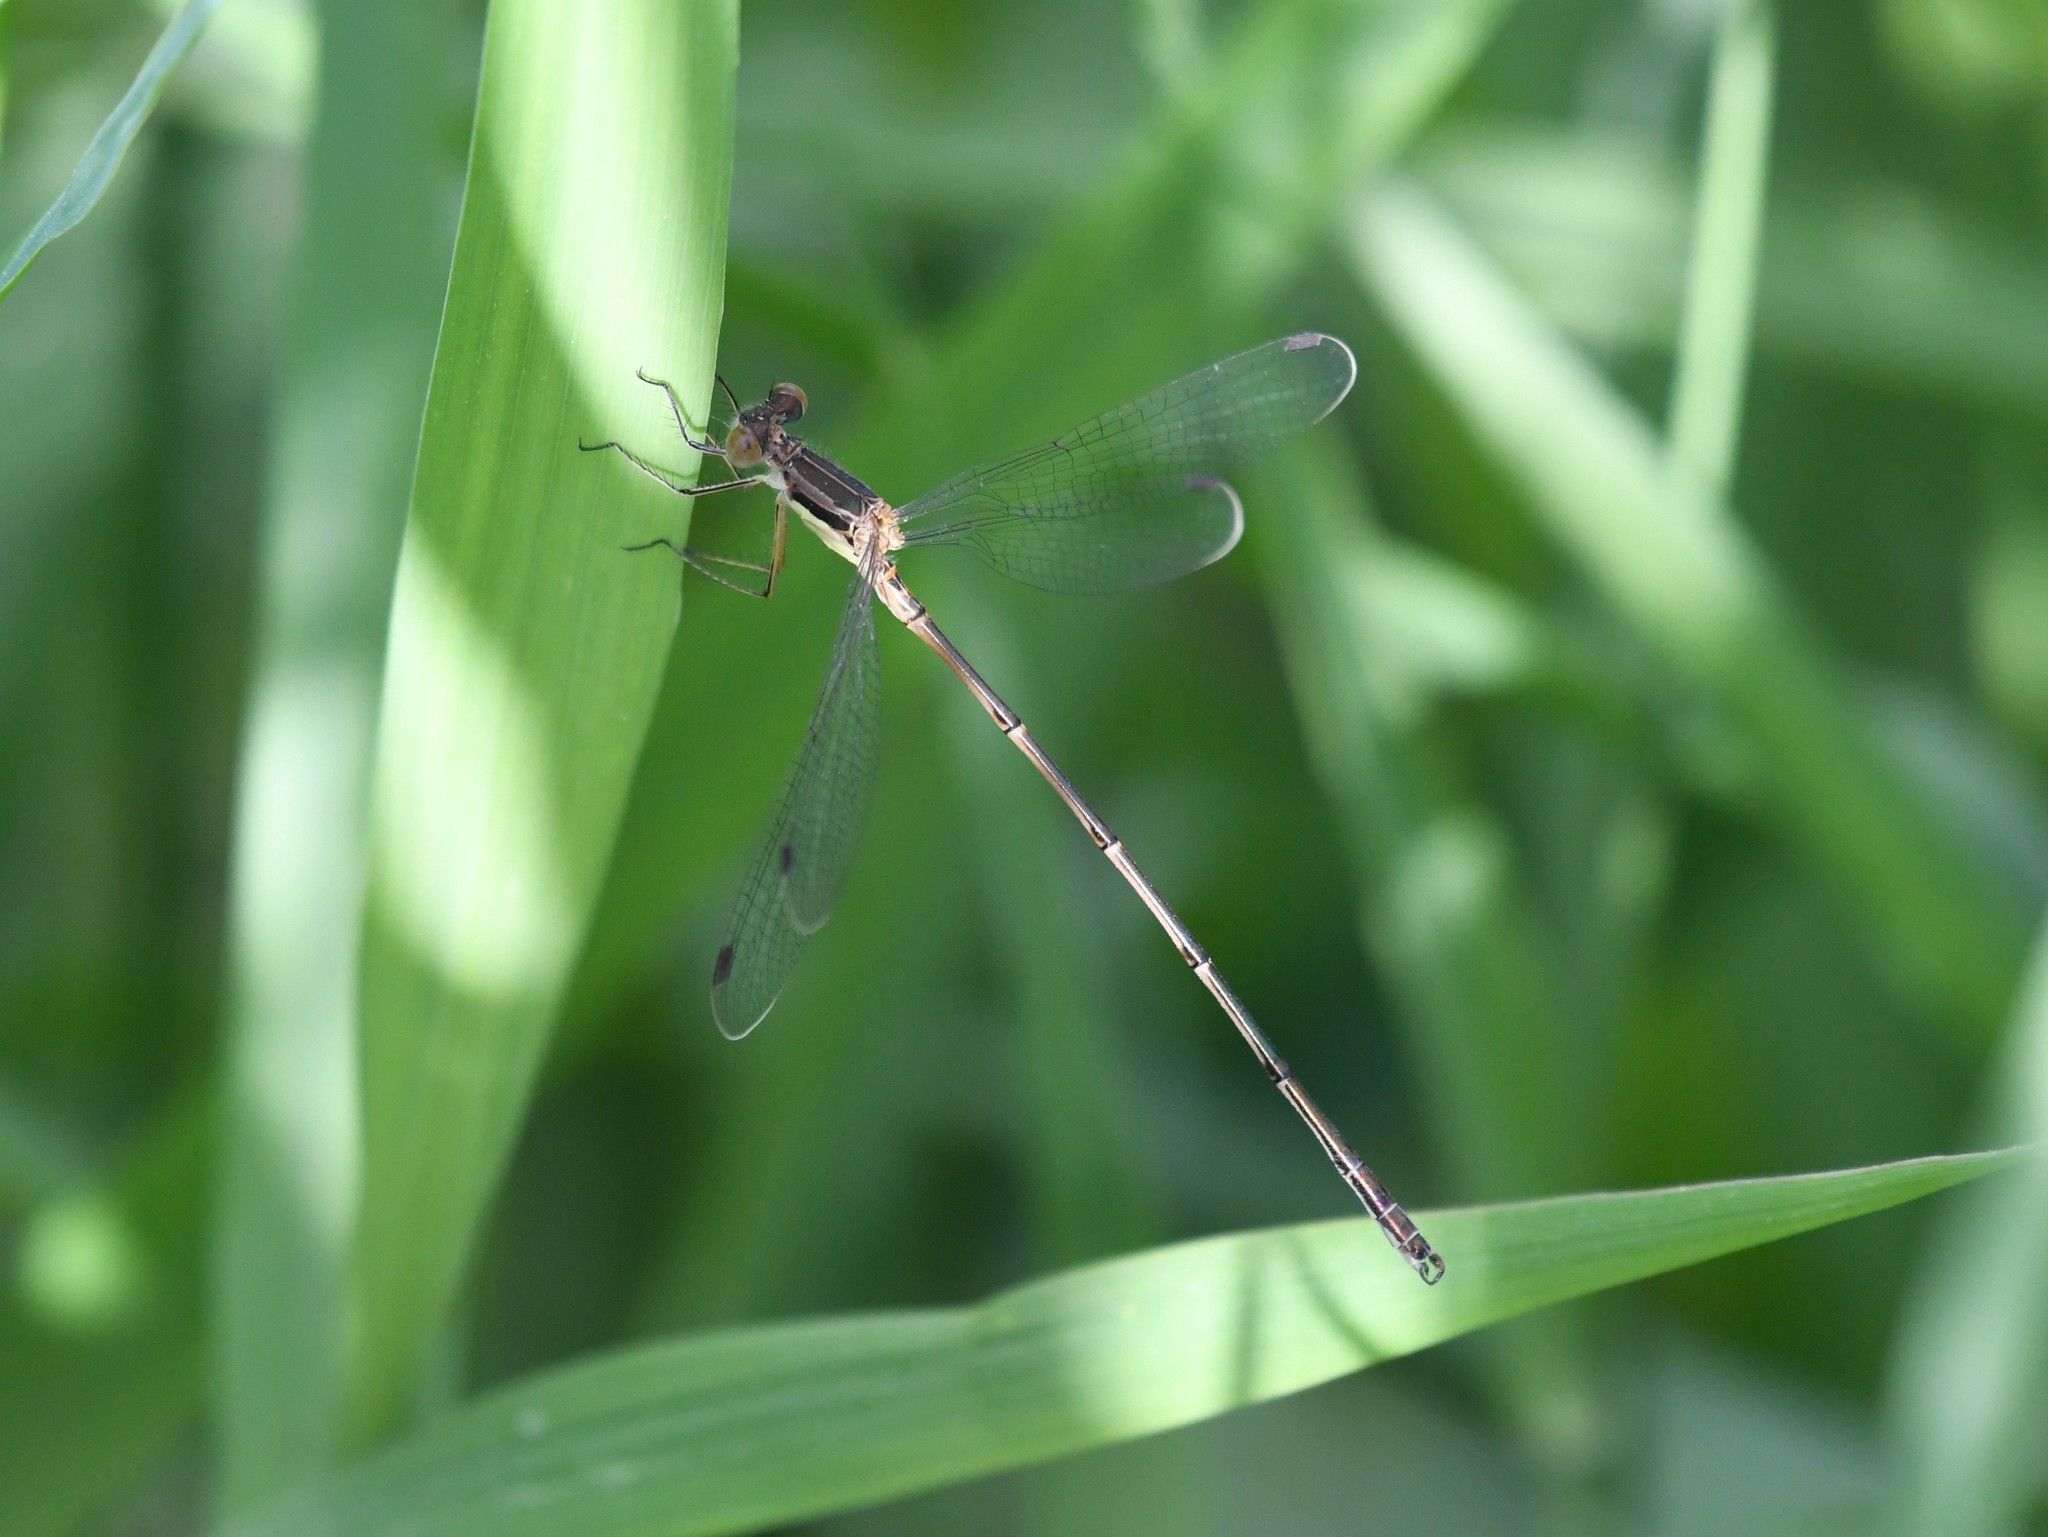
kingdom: Animalia
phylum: Arthropoda
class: Insecta
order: Odonata
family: Lestidae
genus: Lestes
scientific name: Lestes rectangularis
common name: Slender spreadwing
